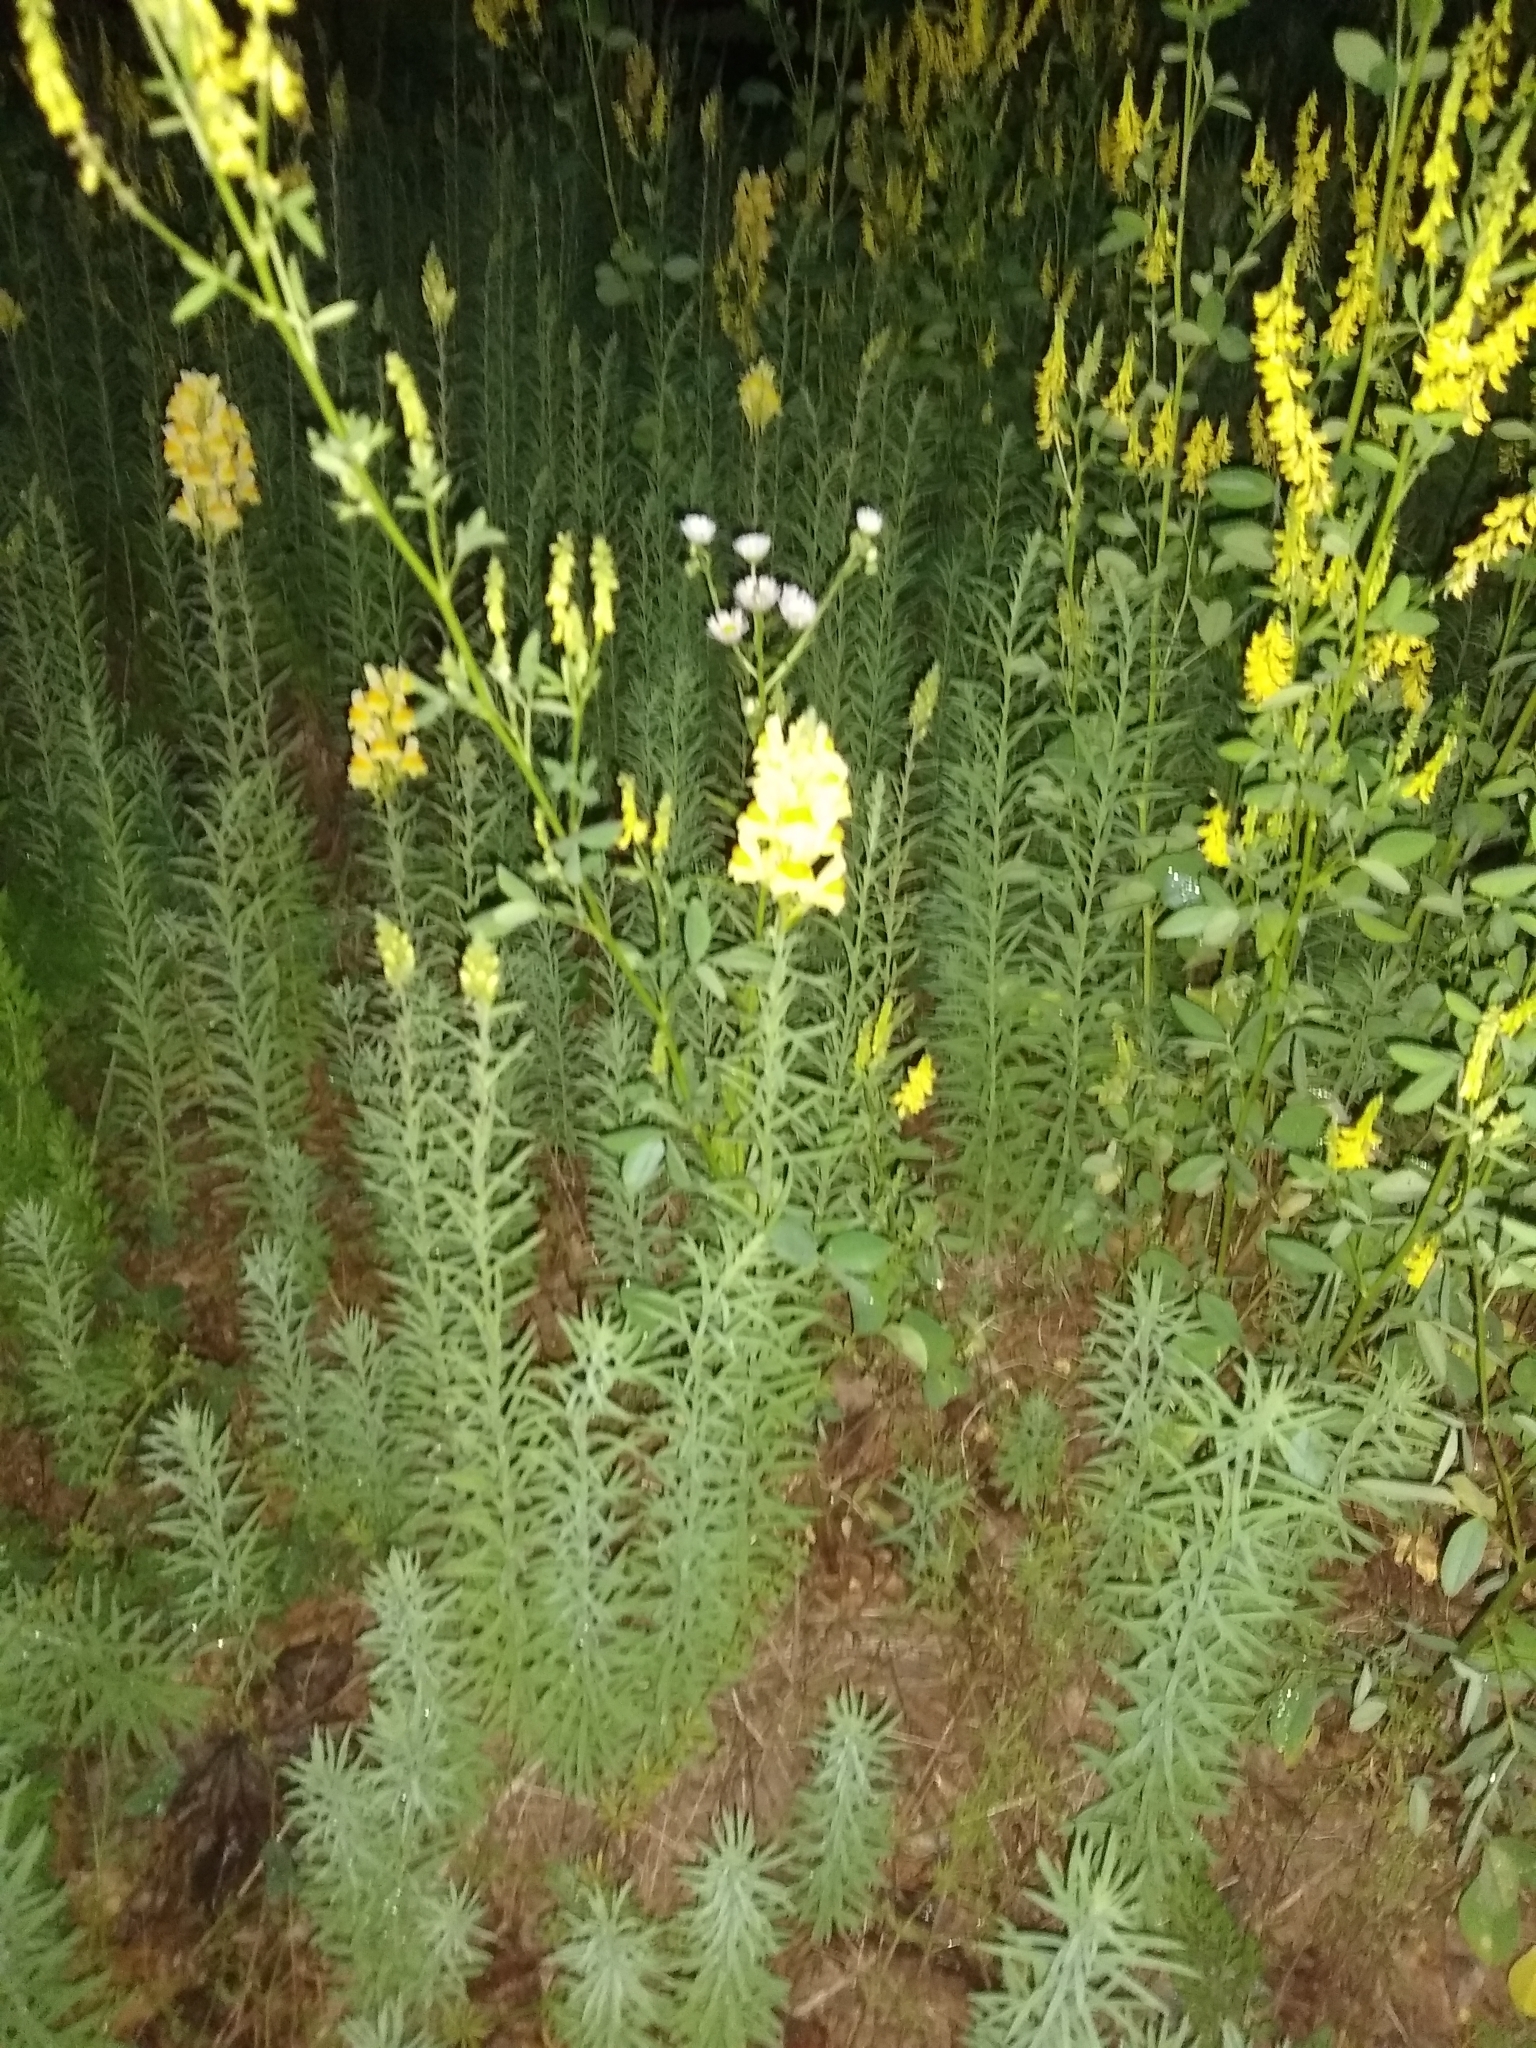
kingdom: Plantae
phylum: Tracheophyta
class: Magnoliopsida
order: Lamiales
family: Plantaginaceae
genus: Linaria
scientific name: Linaria vulgaris
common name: Butter and eggs
